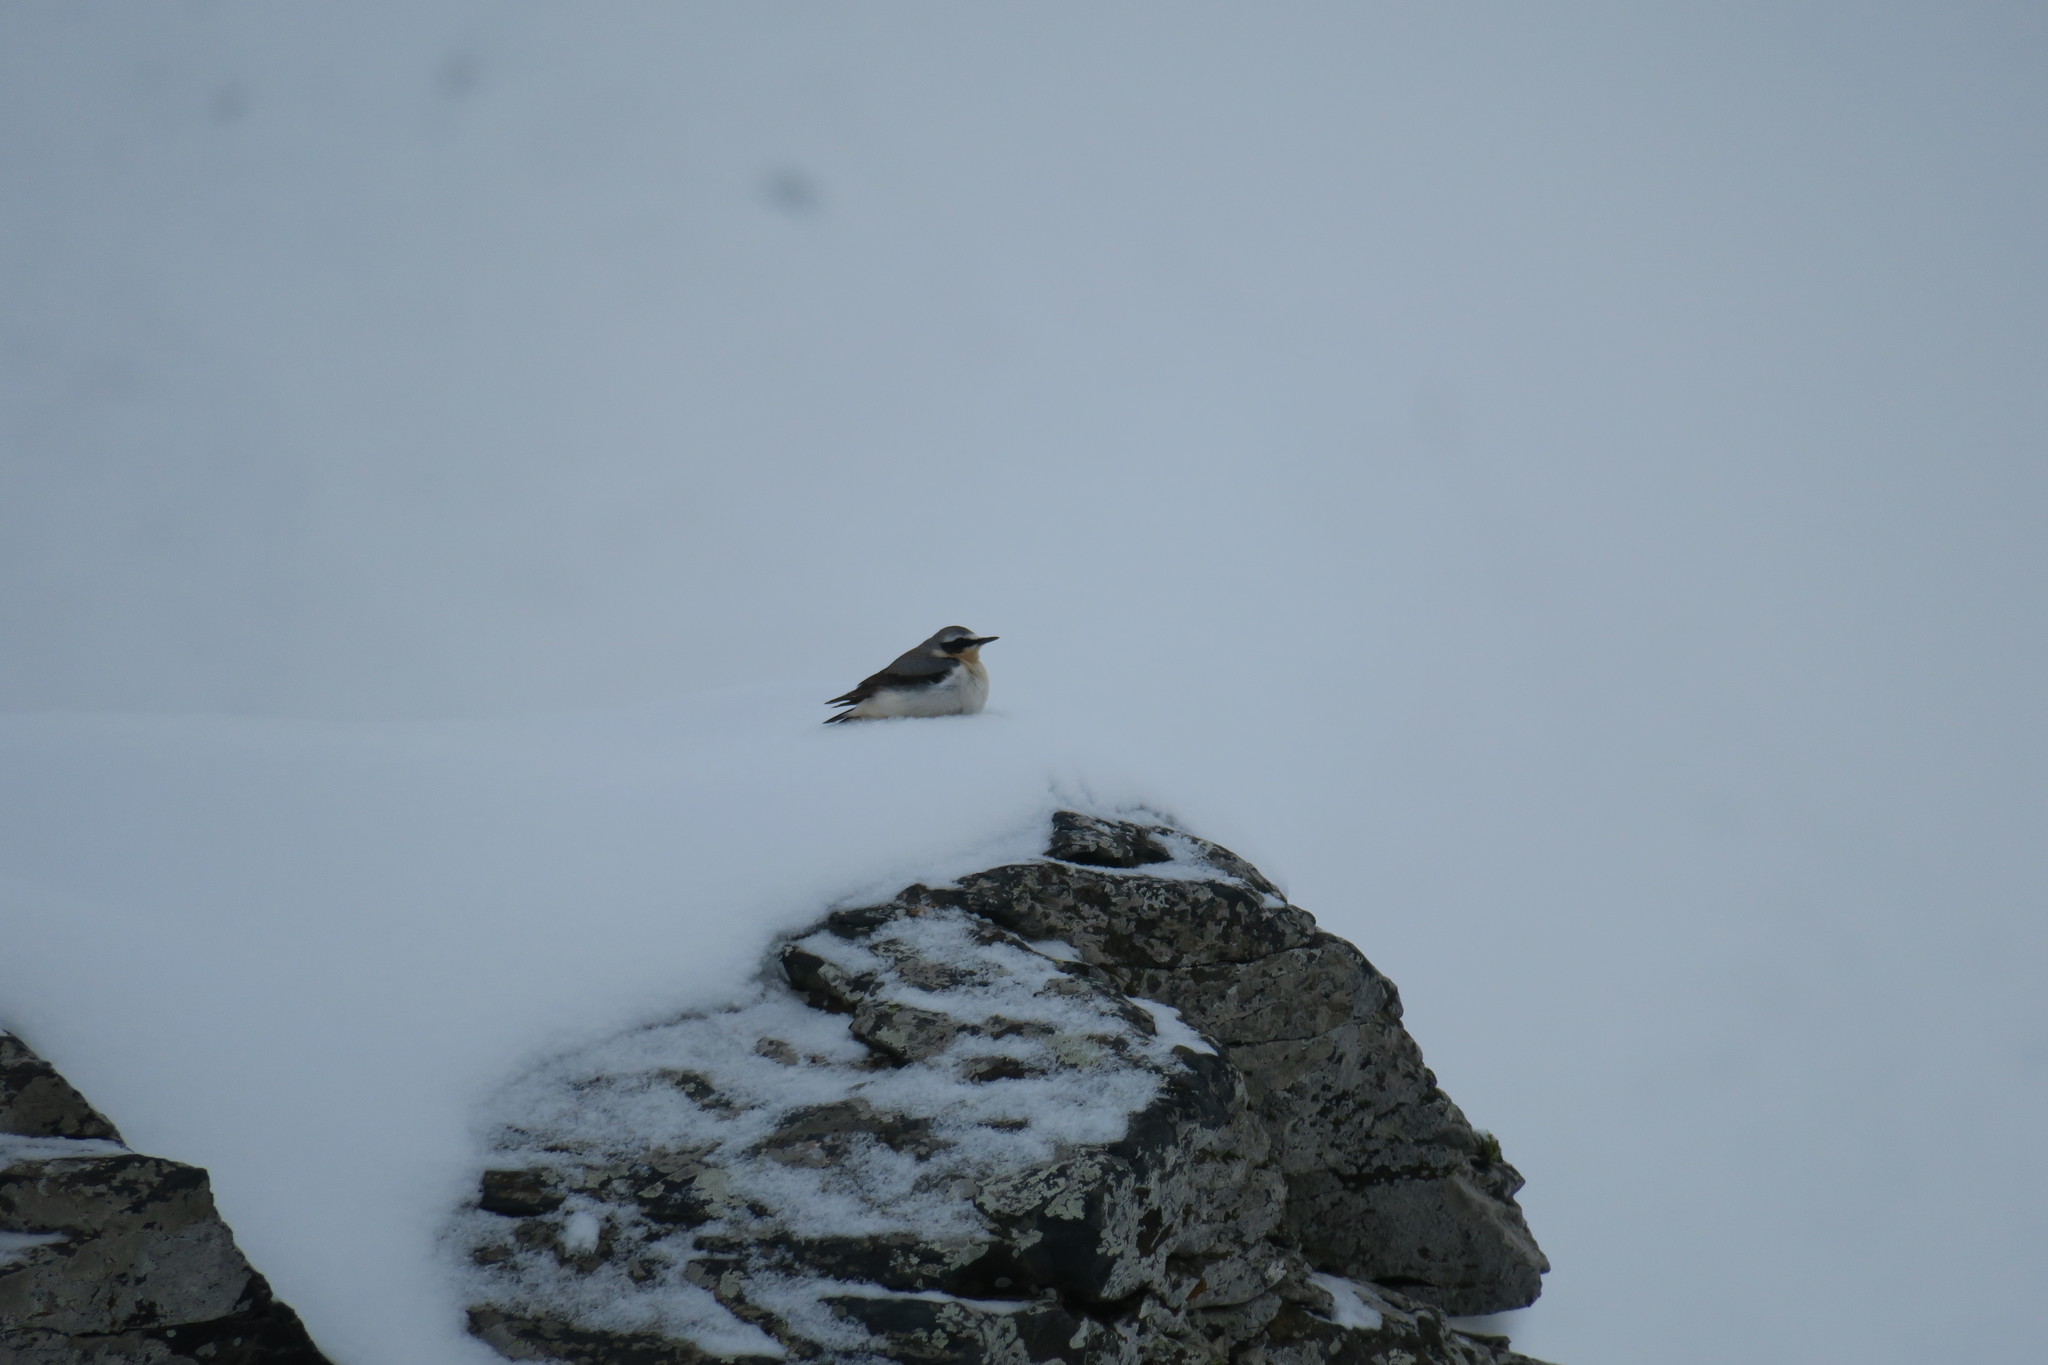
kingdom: Animalia
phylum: Chordata
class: Aves
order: Passeriformes
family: Muscicapidae
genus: Oenanthe
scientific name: Oenanthe oenanthe
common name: Northern wheatear
